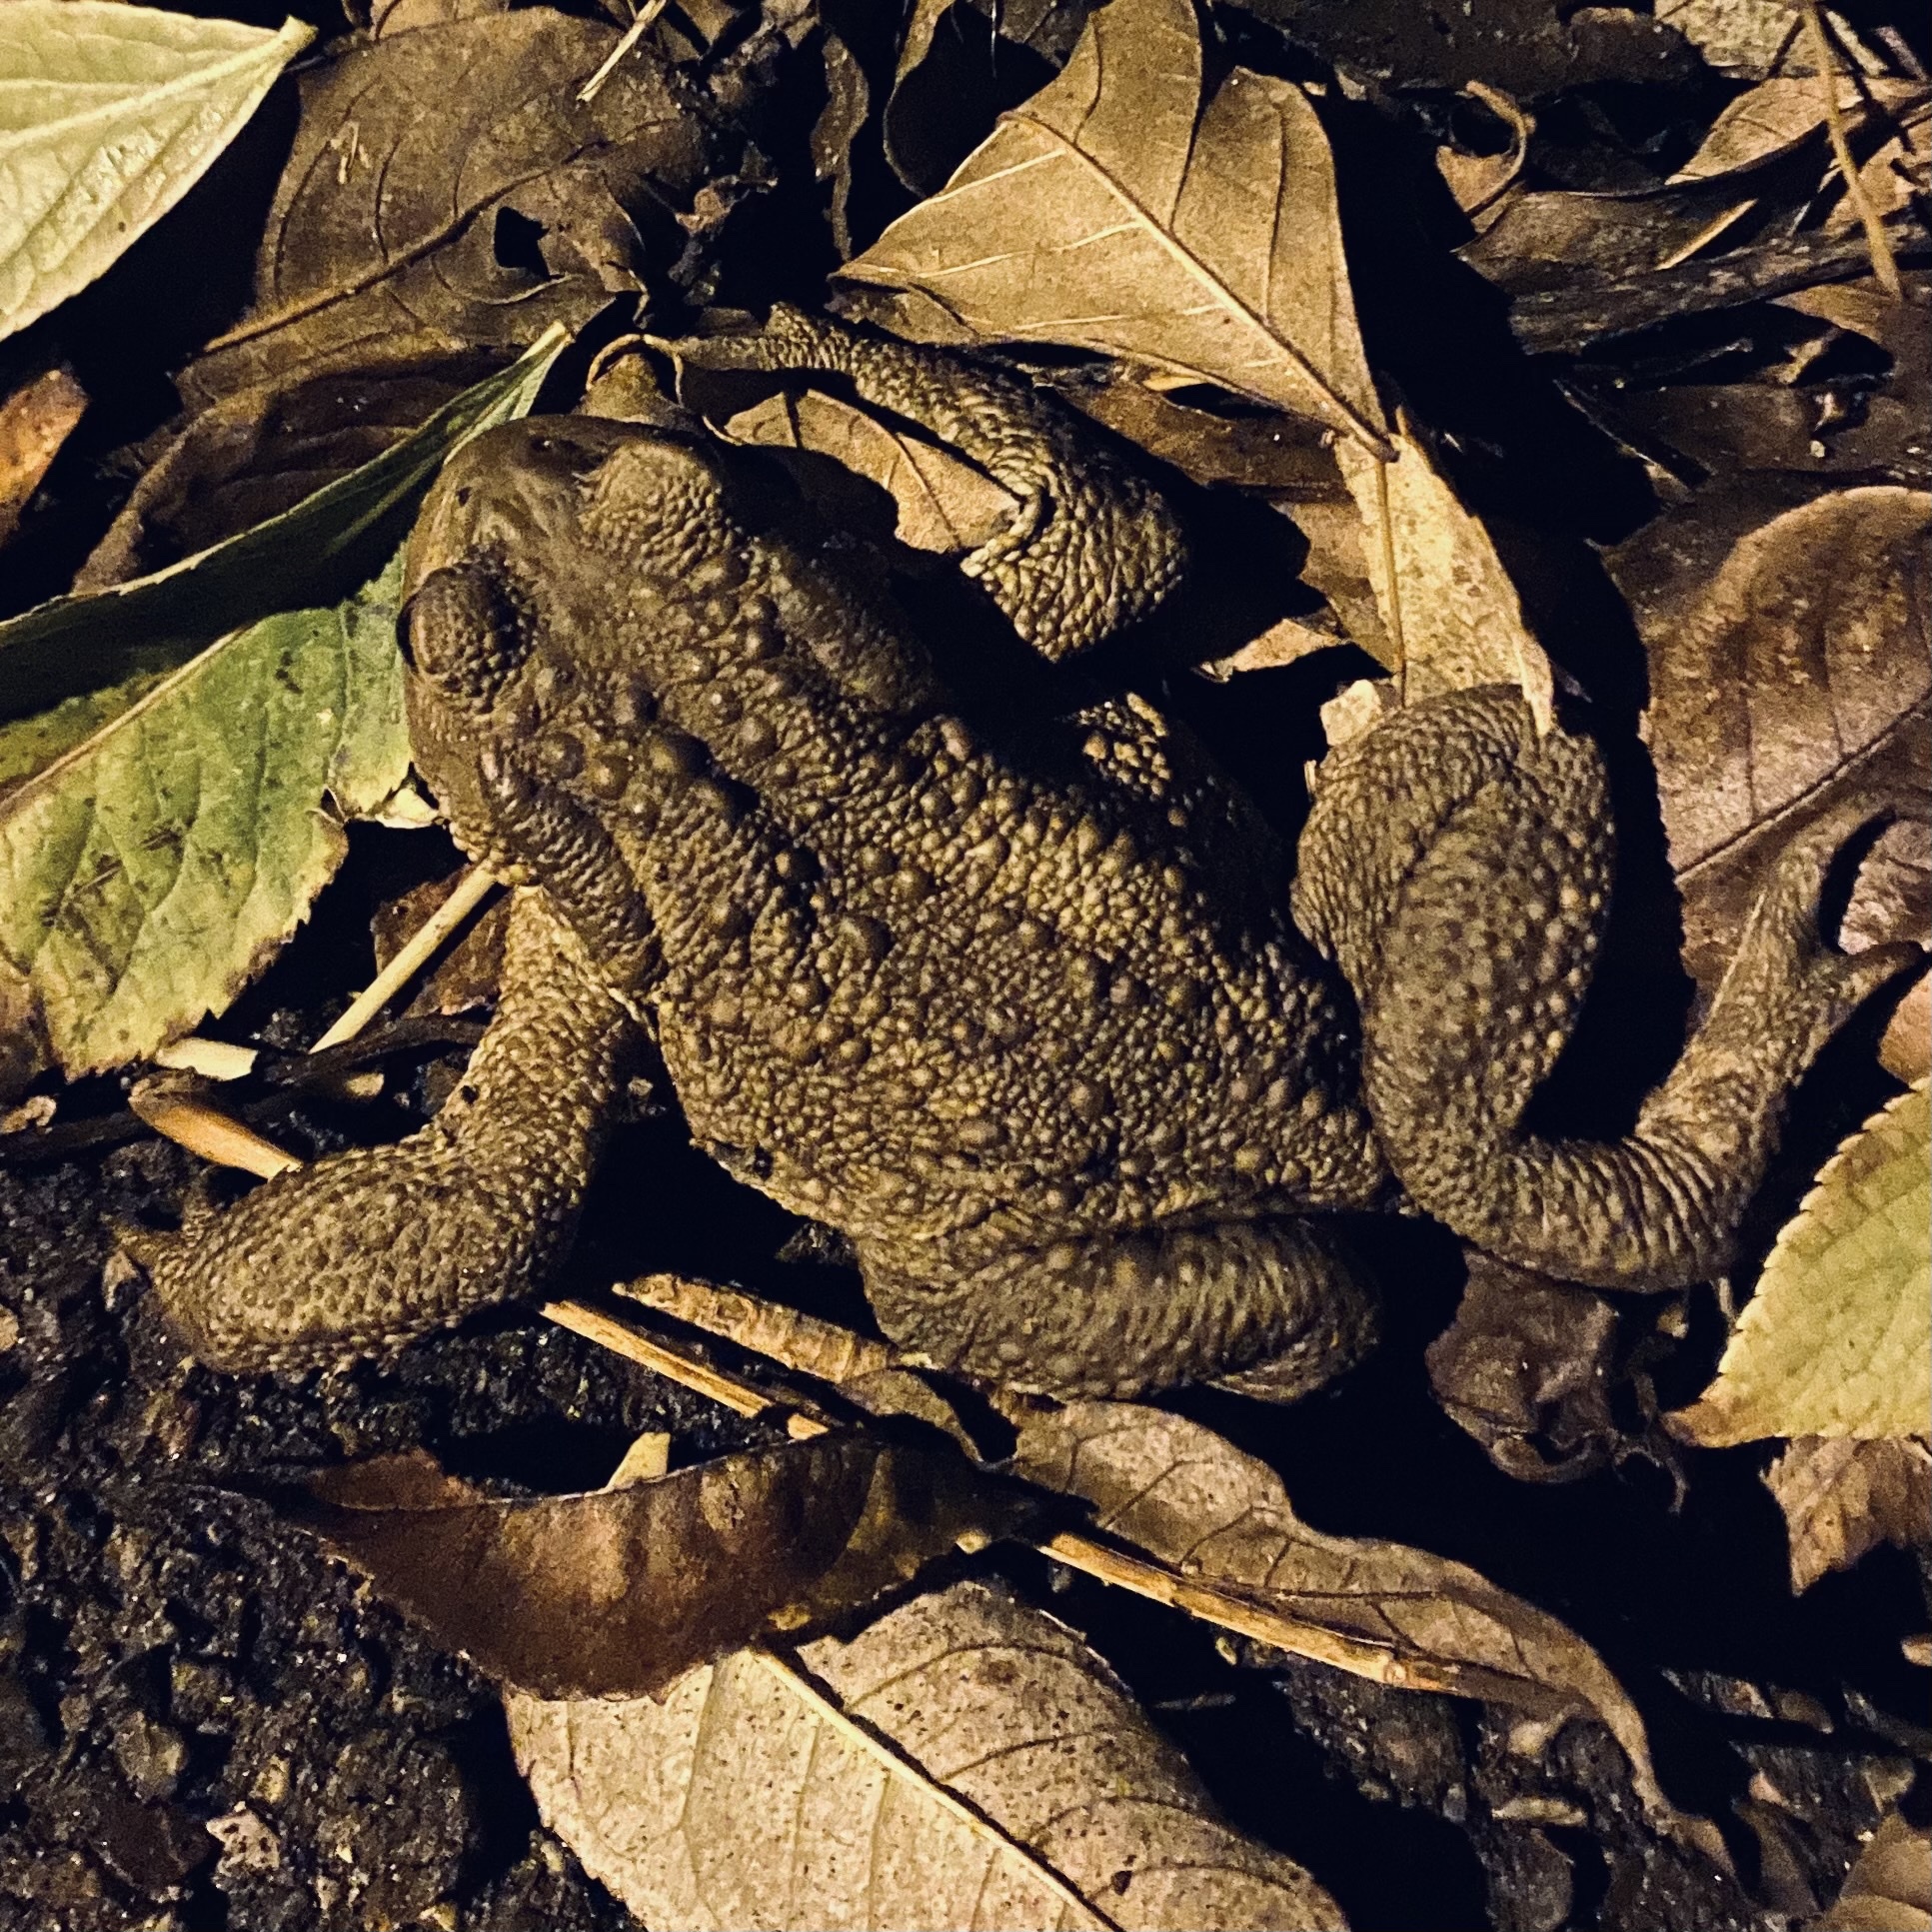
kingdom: Animalia
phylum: Chordata
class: Amphibia
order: Anura
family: Bufonidae
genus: Bufo
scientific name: Bufo bufo
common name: Common toad
